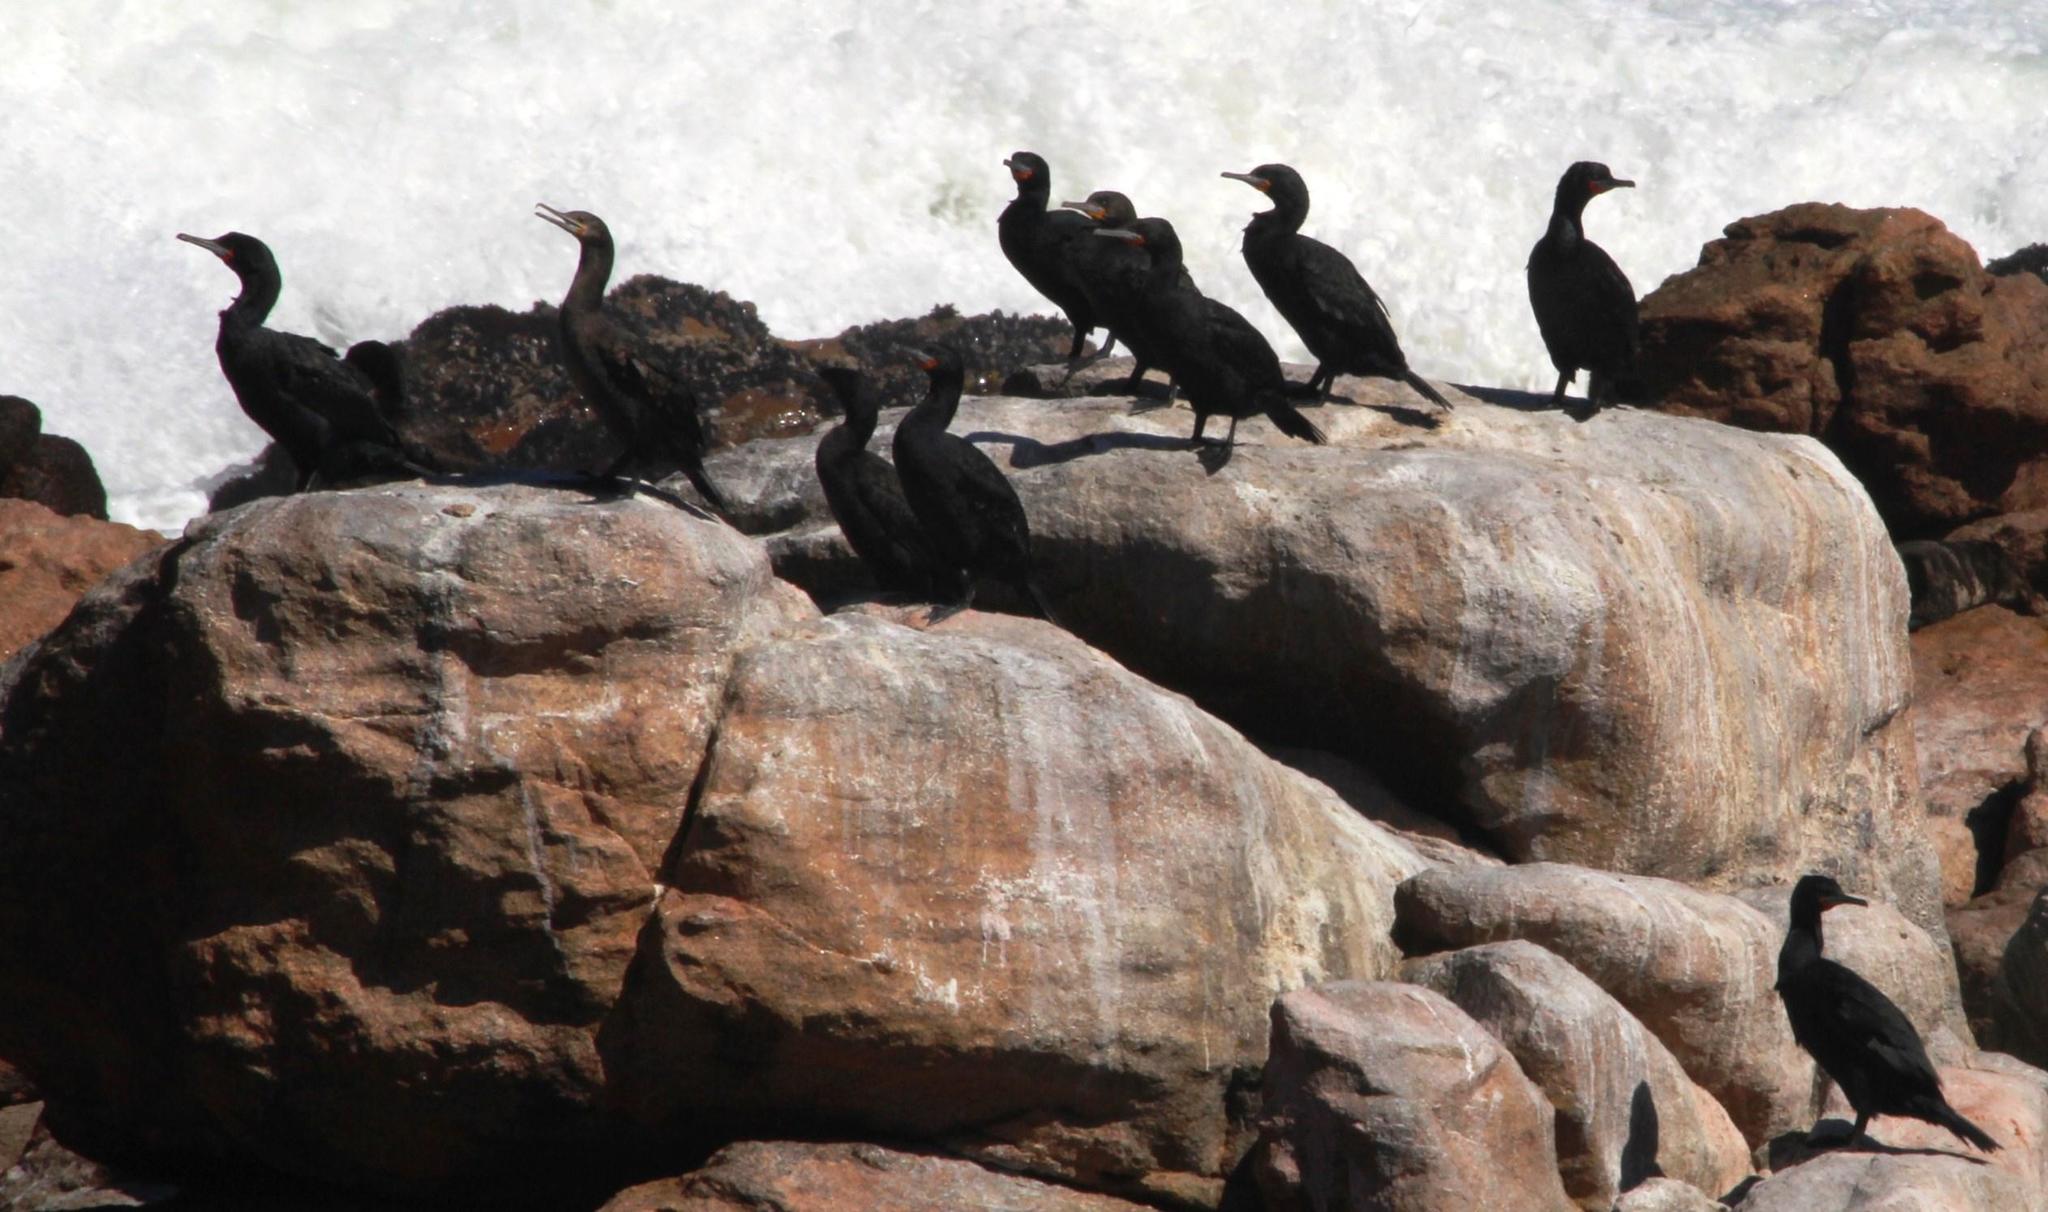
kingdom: Animalia
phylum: Chordata
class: Aves
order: Suliformes
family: Phalacrocoracidae
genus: Phalacrocorax
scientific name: Phalacrocorax capensis
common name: Cape cormorant
